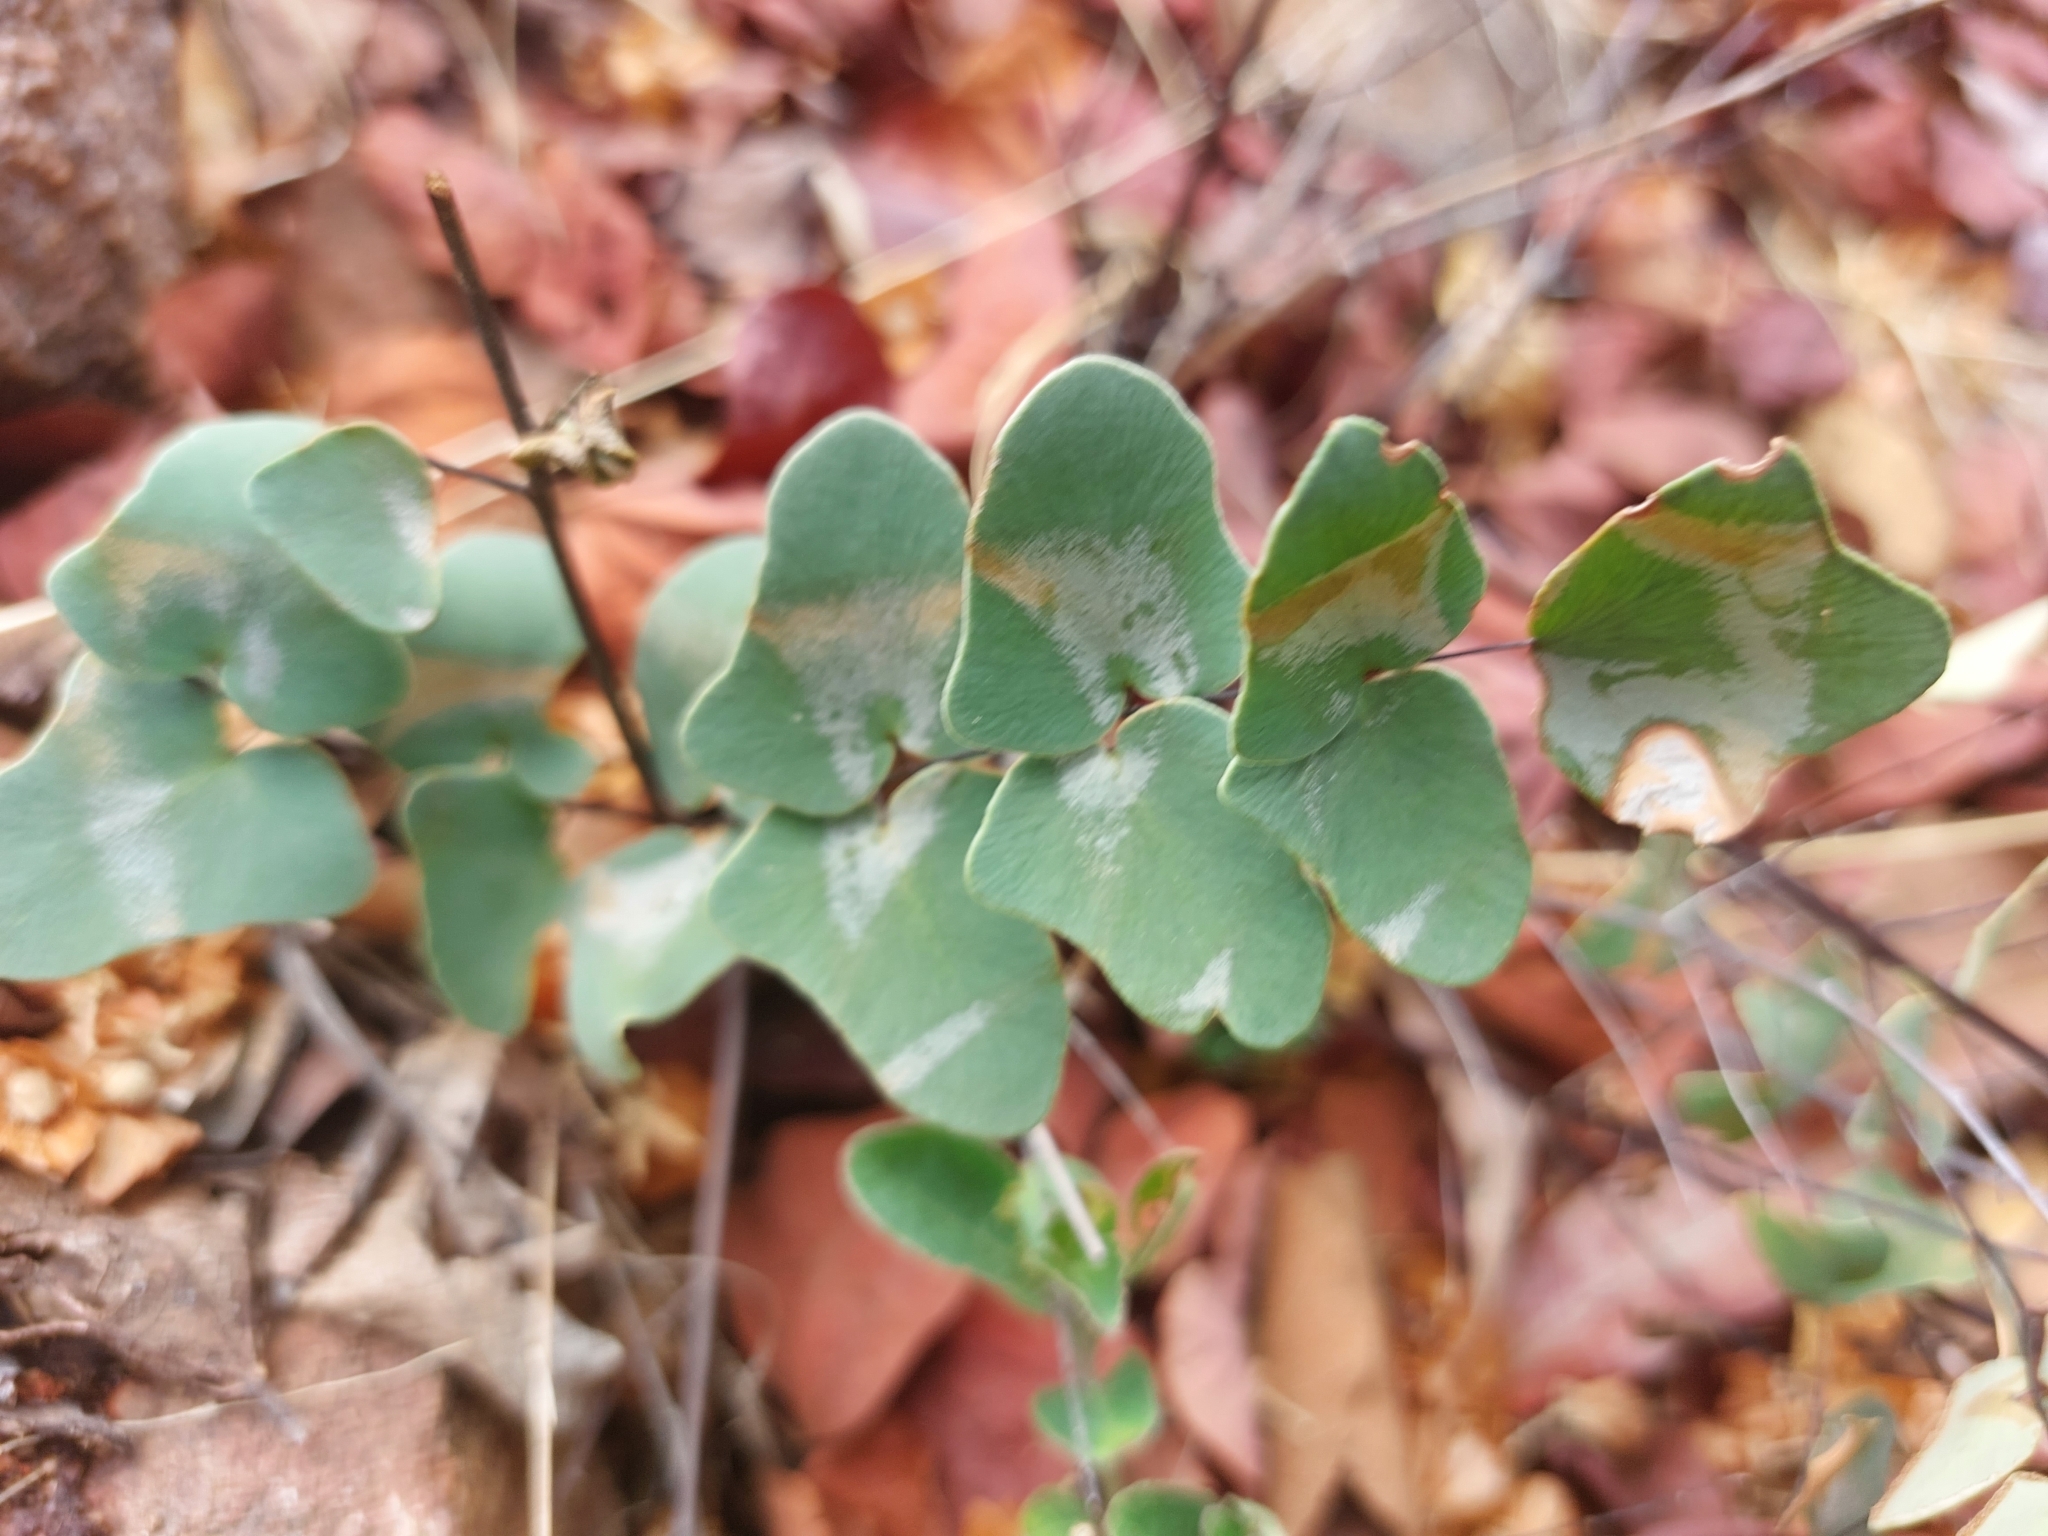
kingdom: Plantae
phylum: Tracheophyta
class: Polypodiopsida
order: Polypodiales
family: Pteridaceae
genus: Pellaea
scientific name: Pellaea calomelanos
